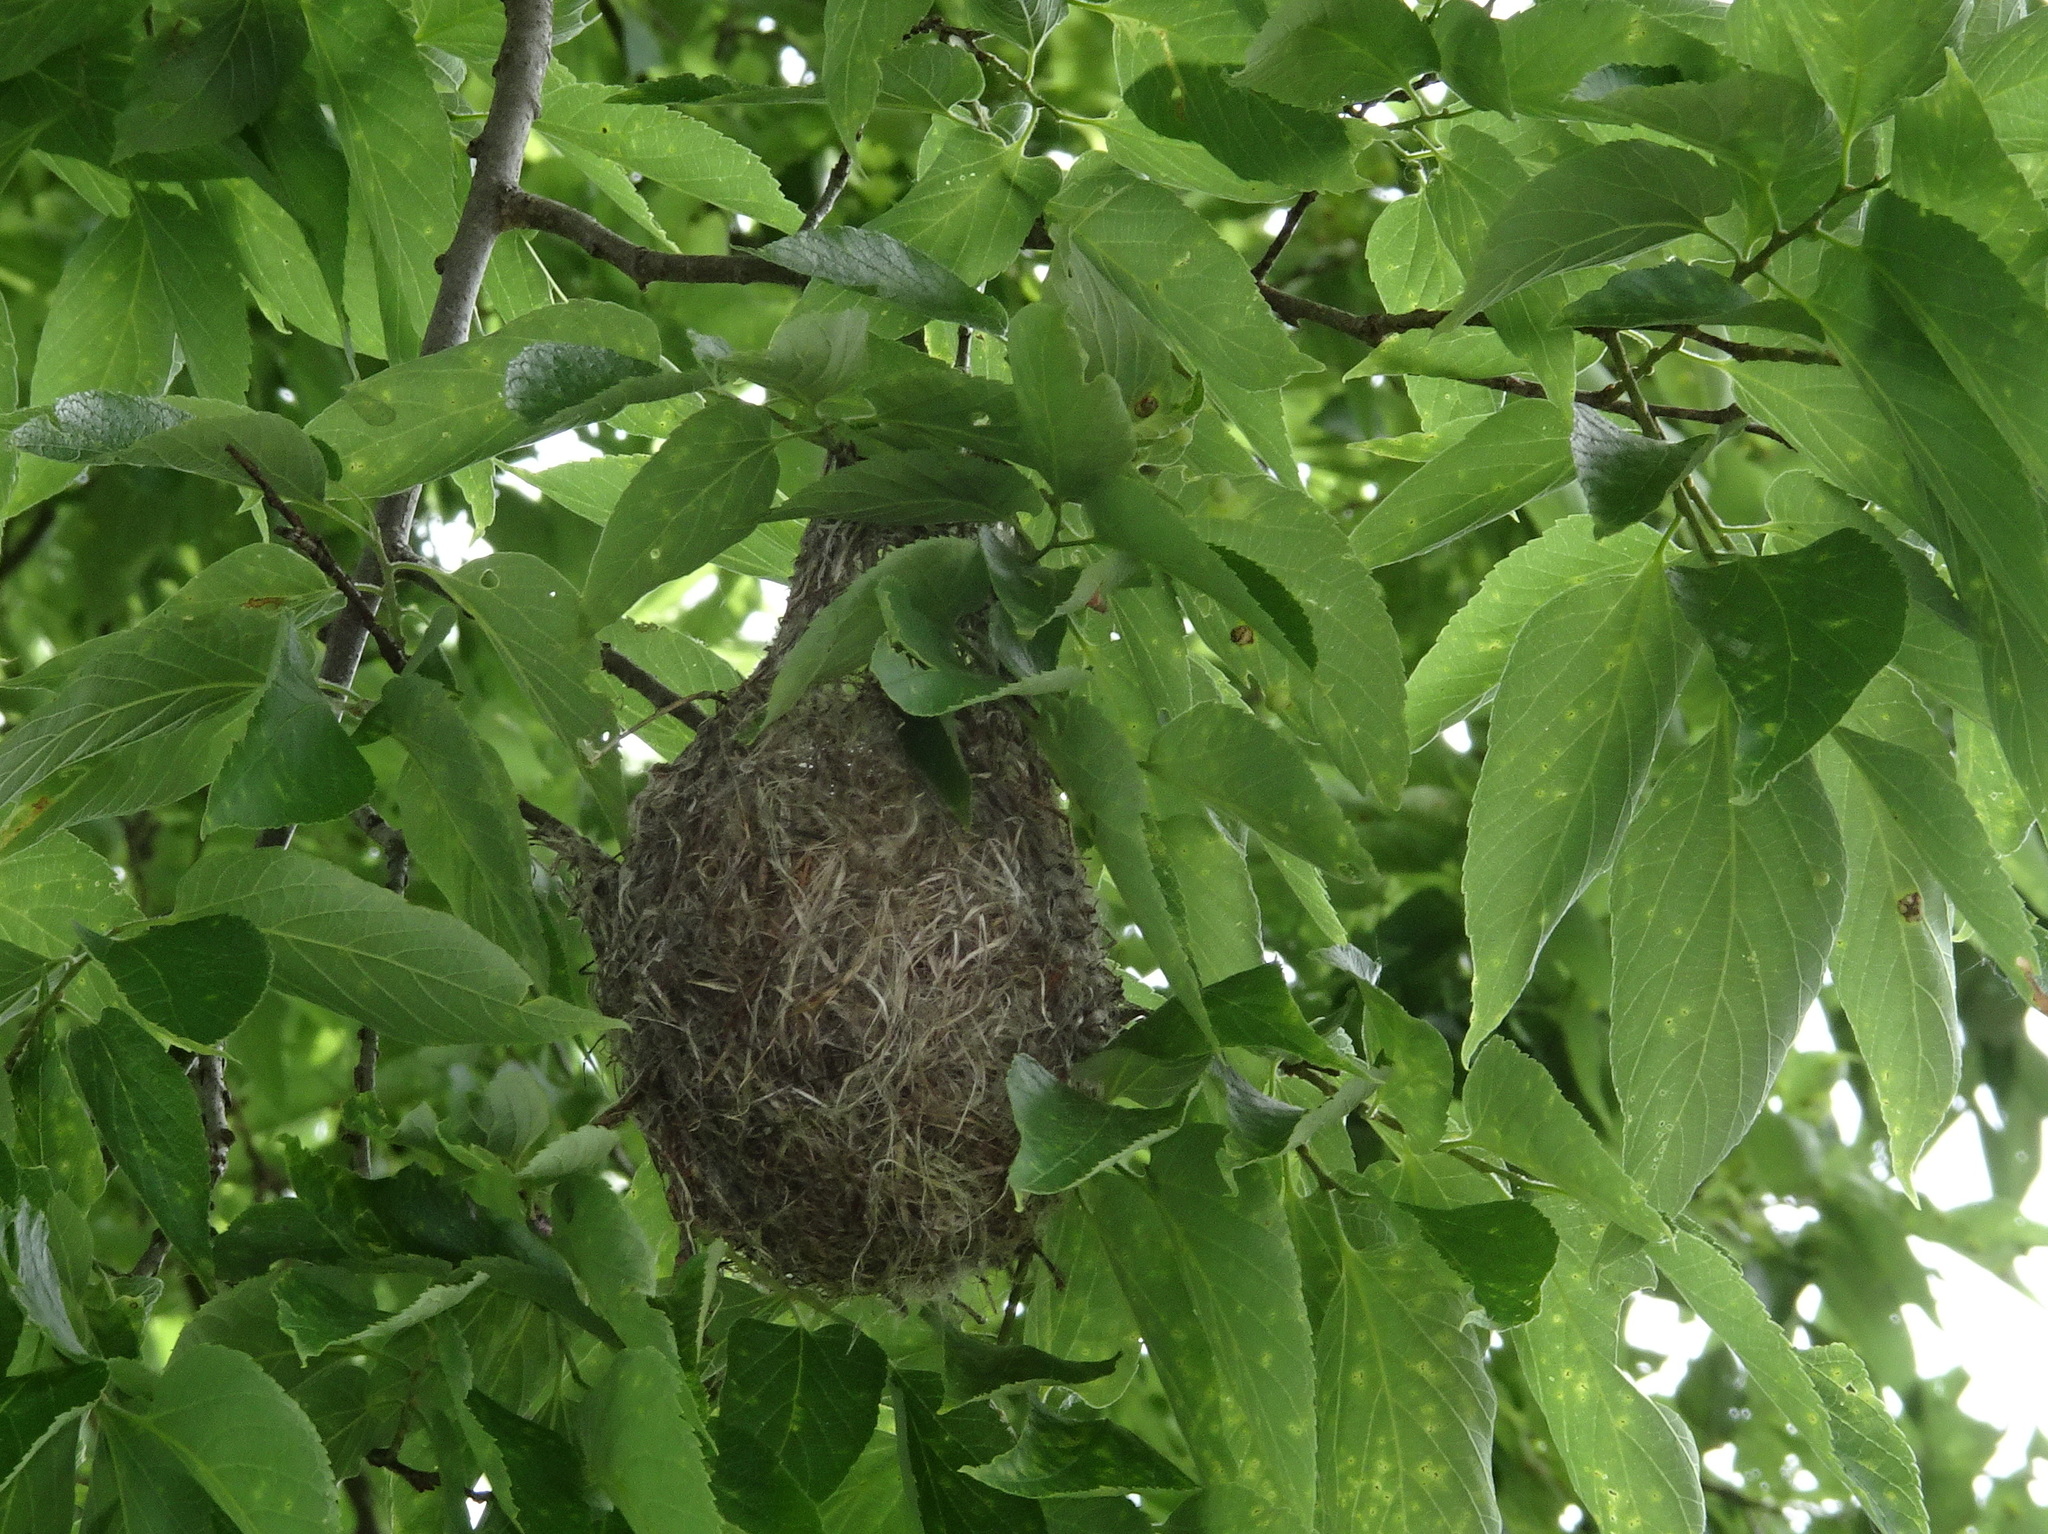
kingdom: Animalia
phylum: Chordata
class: Aves
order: Passeriformes
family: Icteridae
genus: Icterus
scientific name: Icterus galbula
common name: Baltimore oriole
